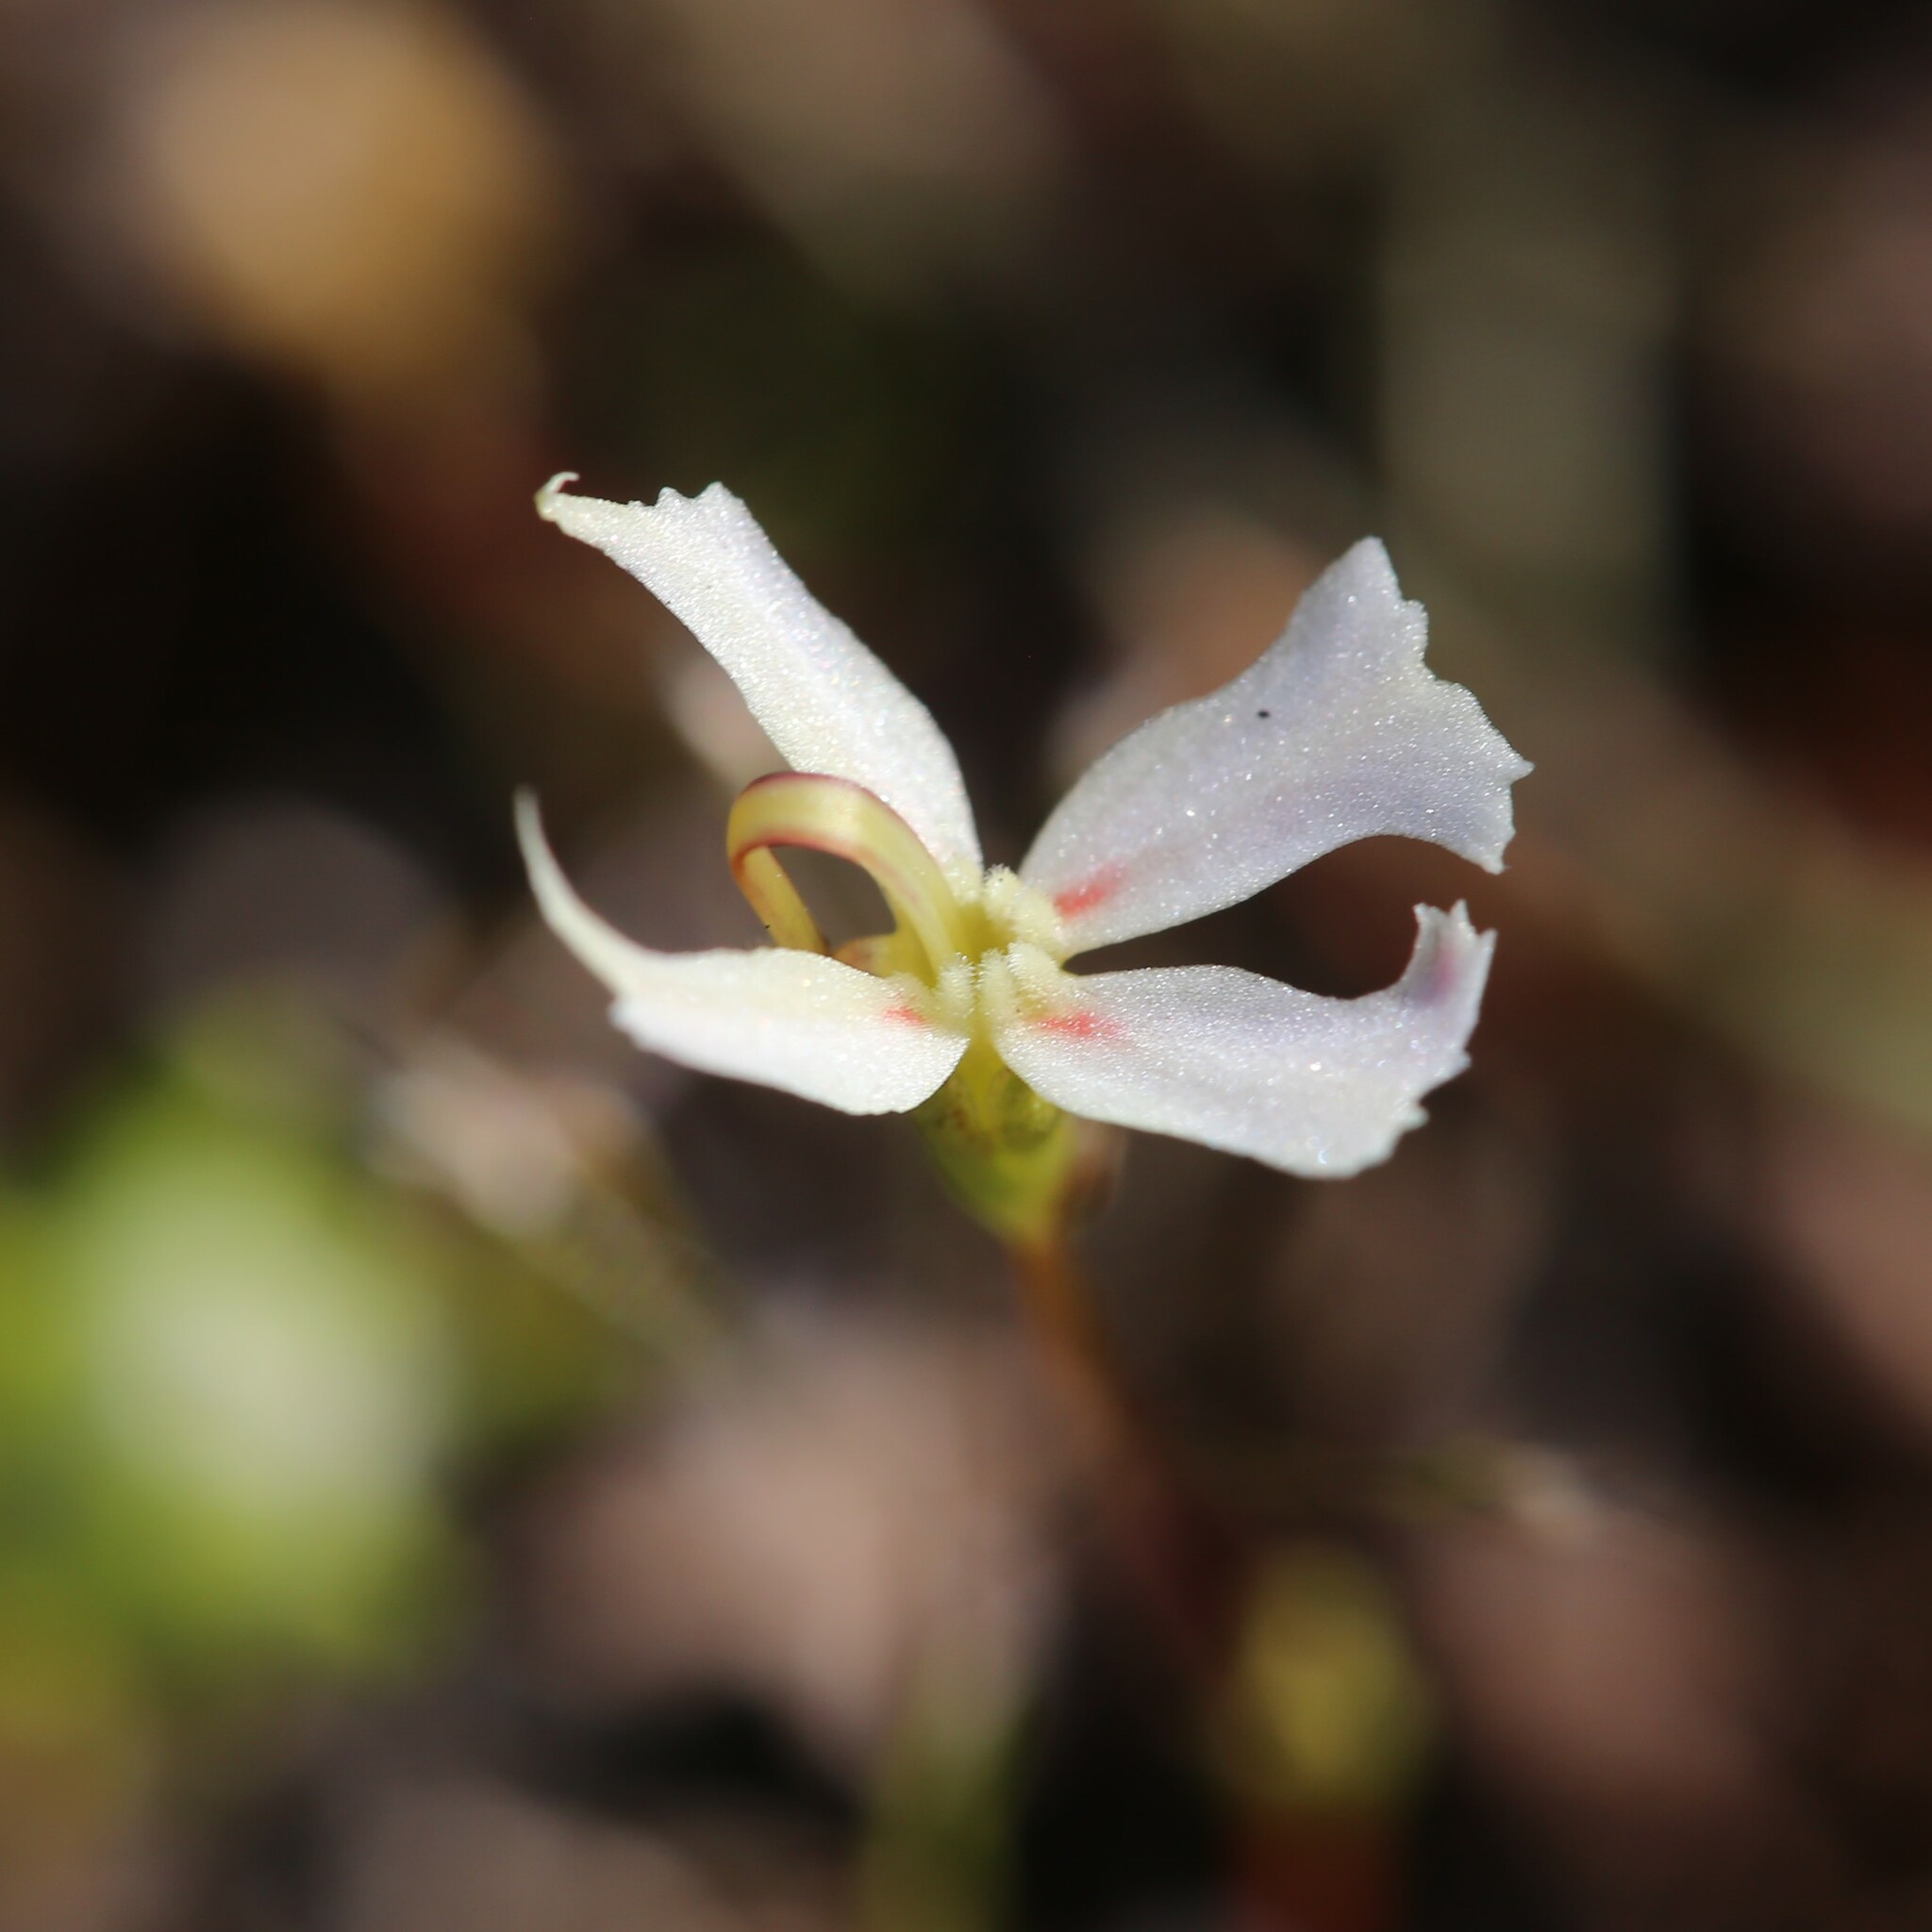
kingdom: Plantae
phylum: Tracheophyta
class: Magnoliopsida
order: Asterales
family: Stylidiaceae
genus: Stylidium
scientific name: Stylidium emarginatum
